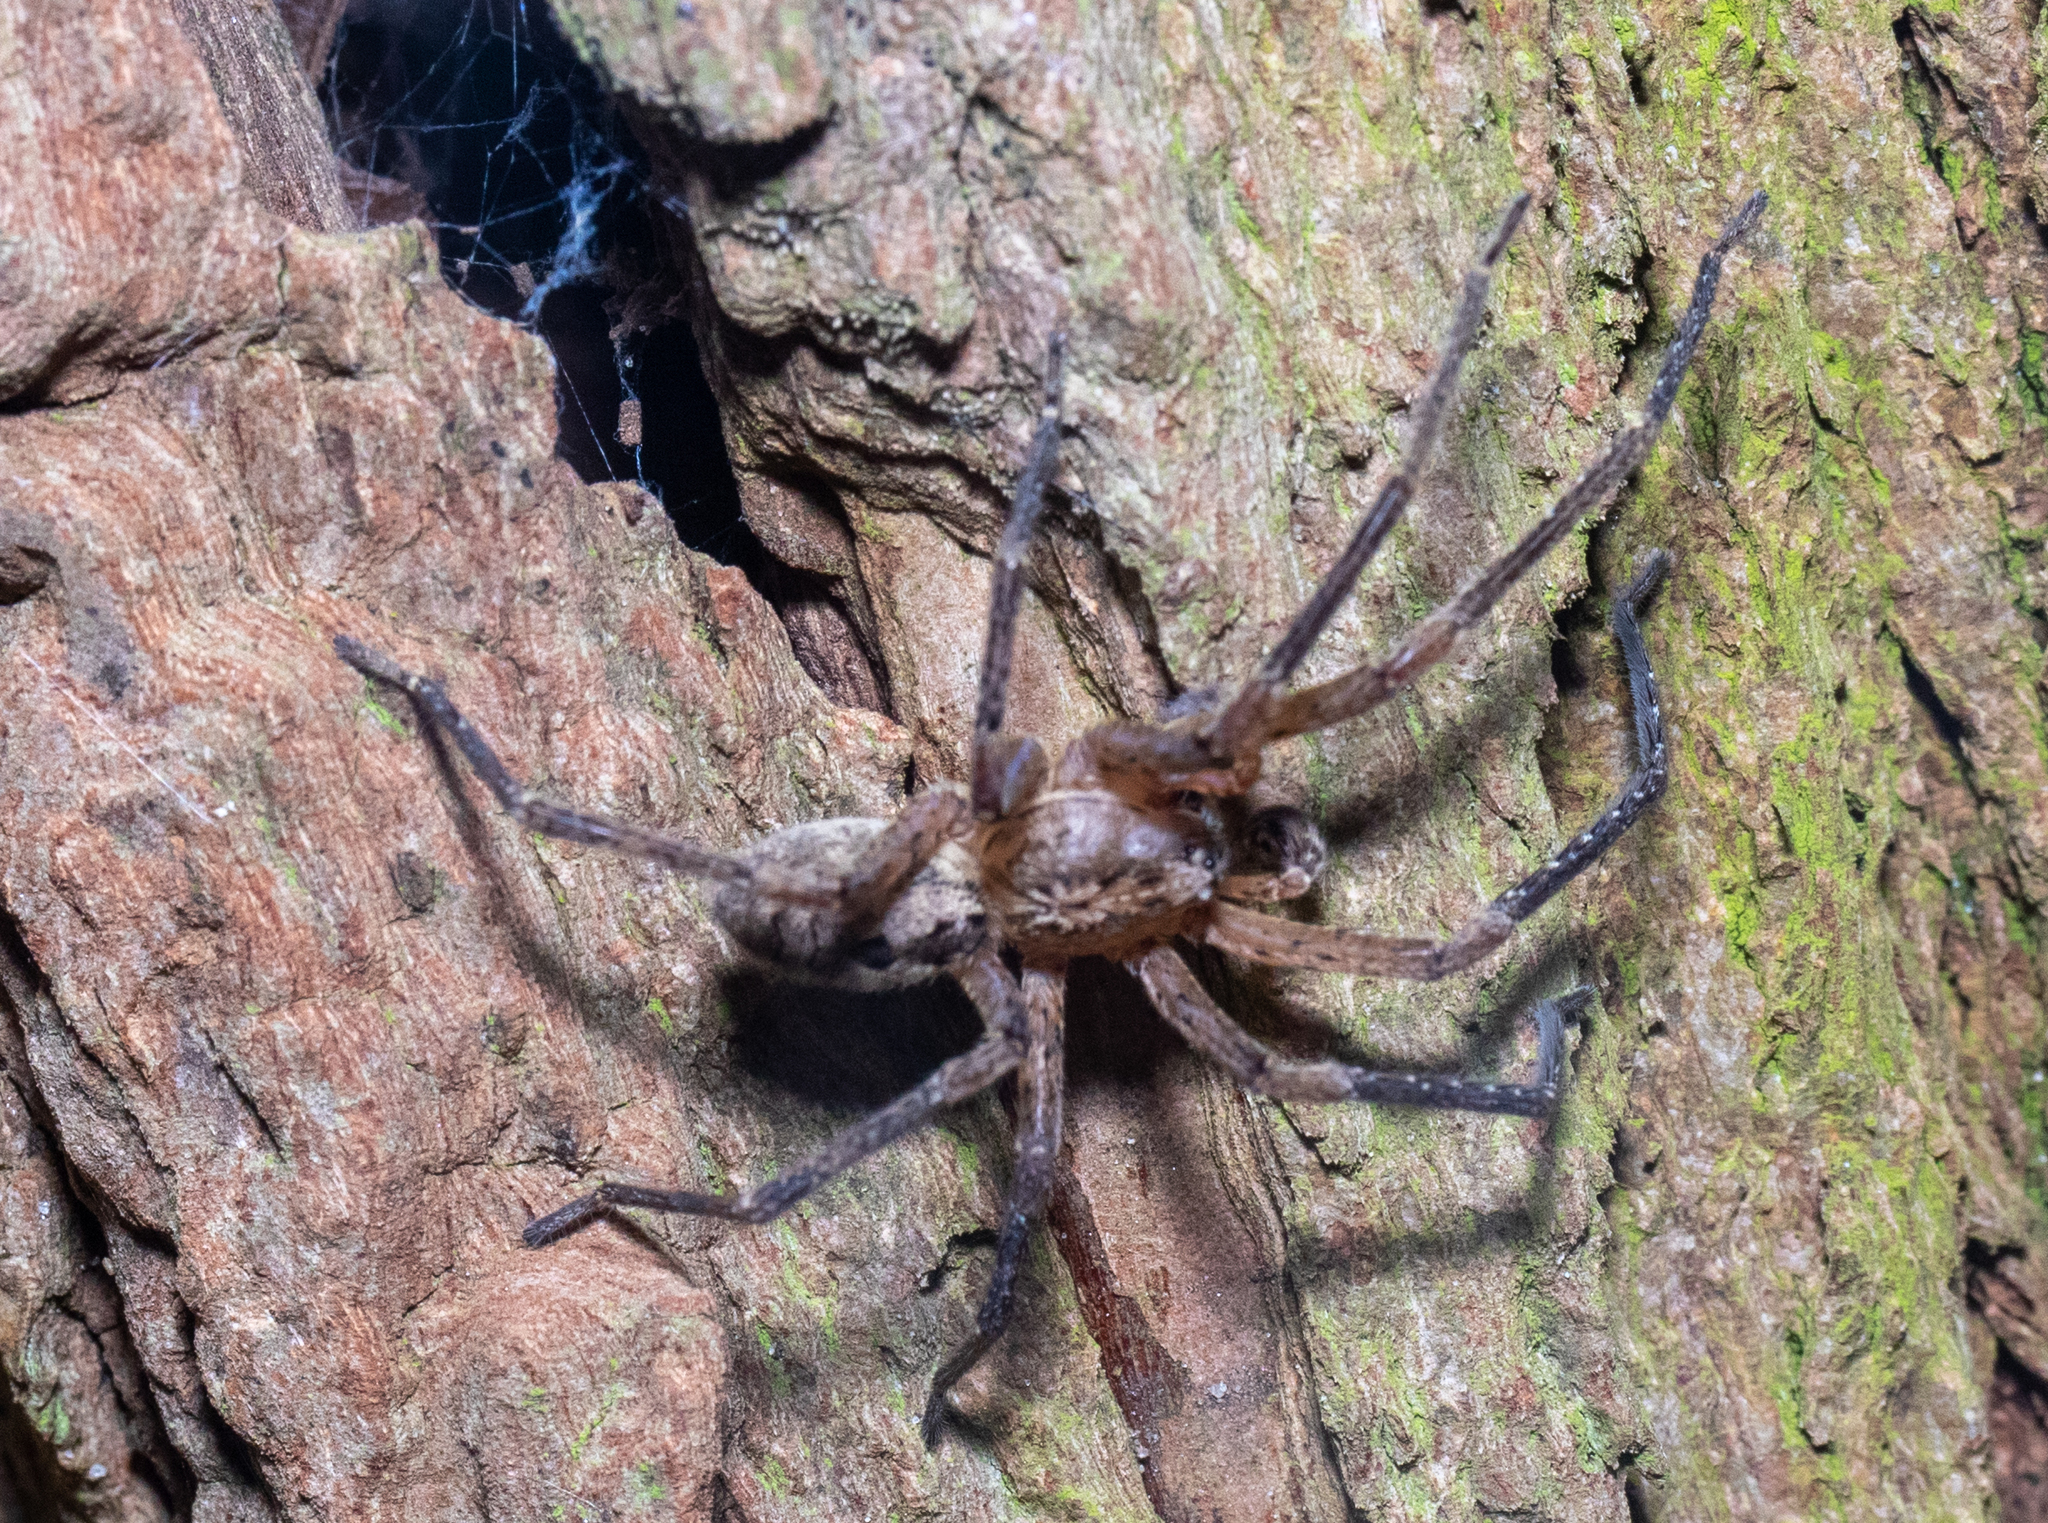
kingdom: Animalia
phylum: Arthropoda
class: Arachnida
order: Araneae
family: Zoropsidae
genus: Zoropsis
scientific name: Zoropsis spinimana
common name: Zoropsid spider
